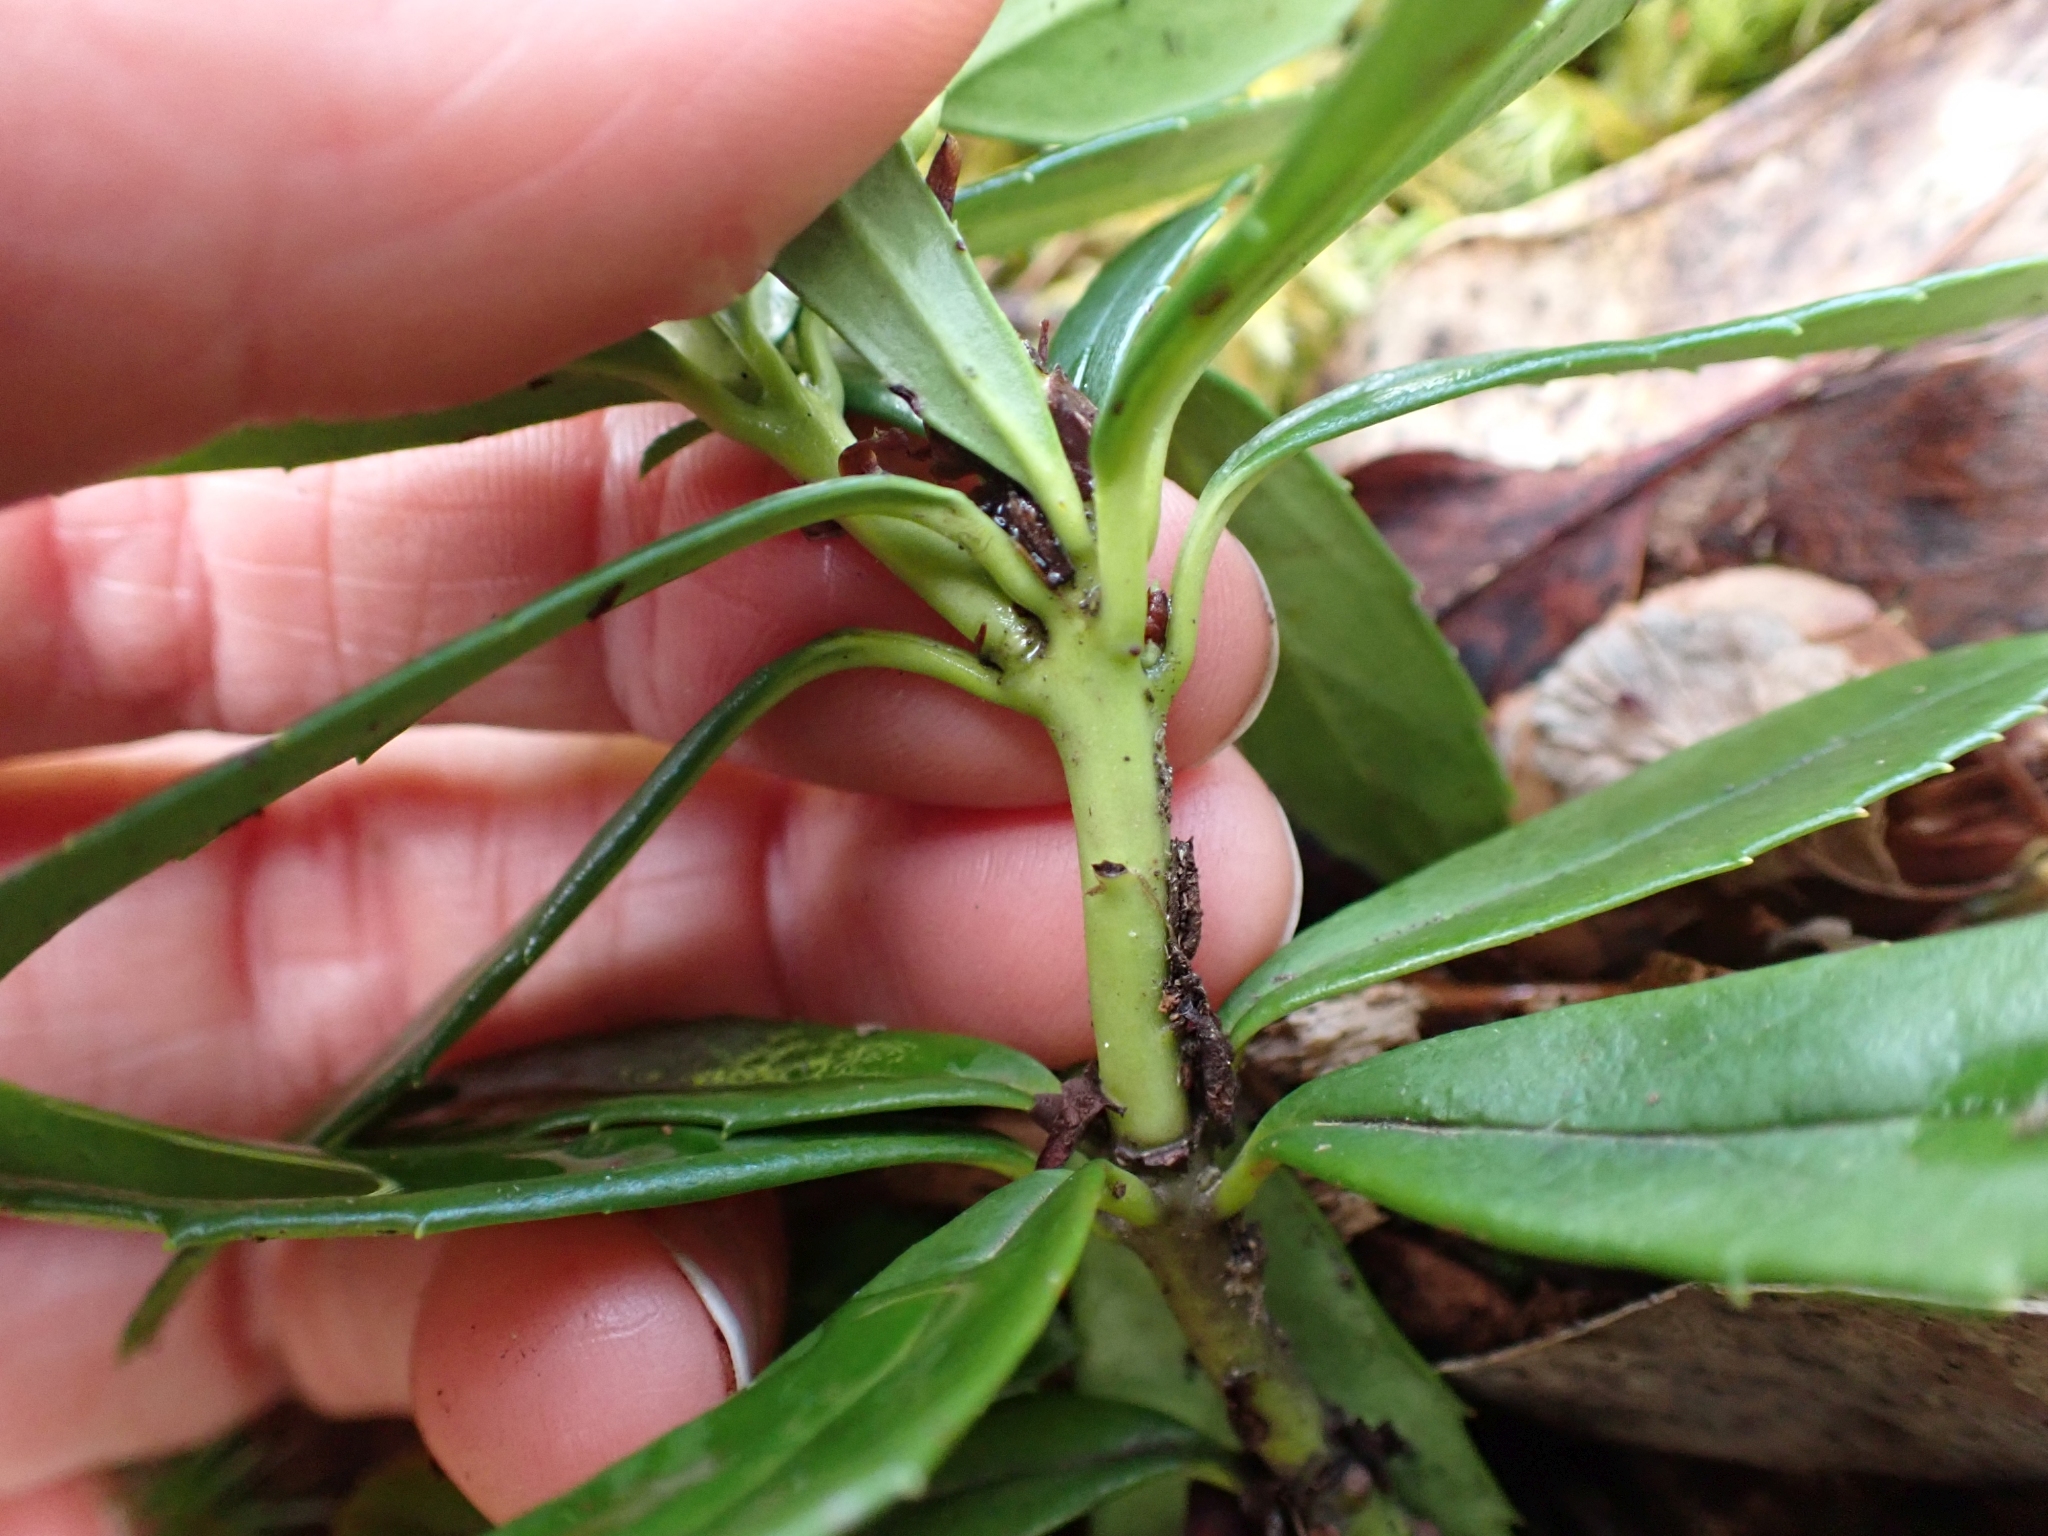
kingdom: Plantae
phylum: Tracheophyta
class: Magnoliopsida
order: Ericales
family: Ericaceae
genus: Chimaphila
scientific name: Chimaphila umbellata
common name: Pipsissewa
